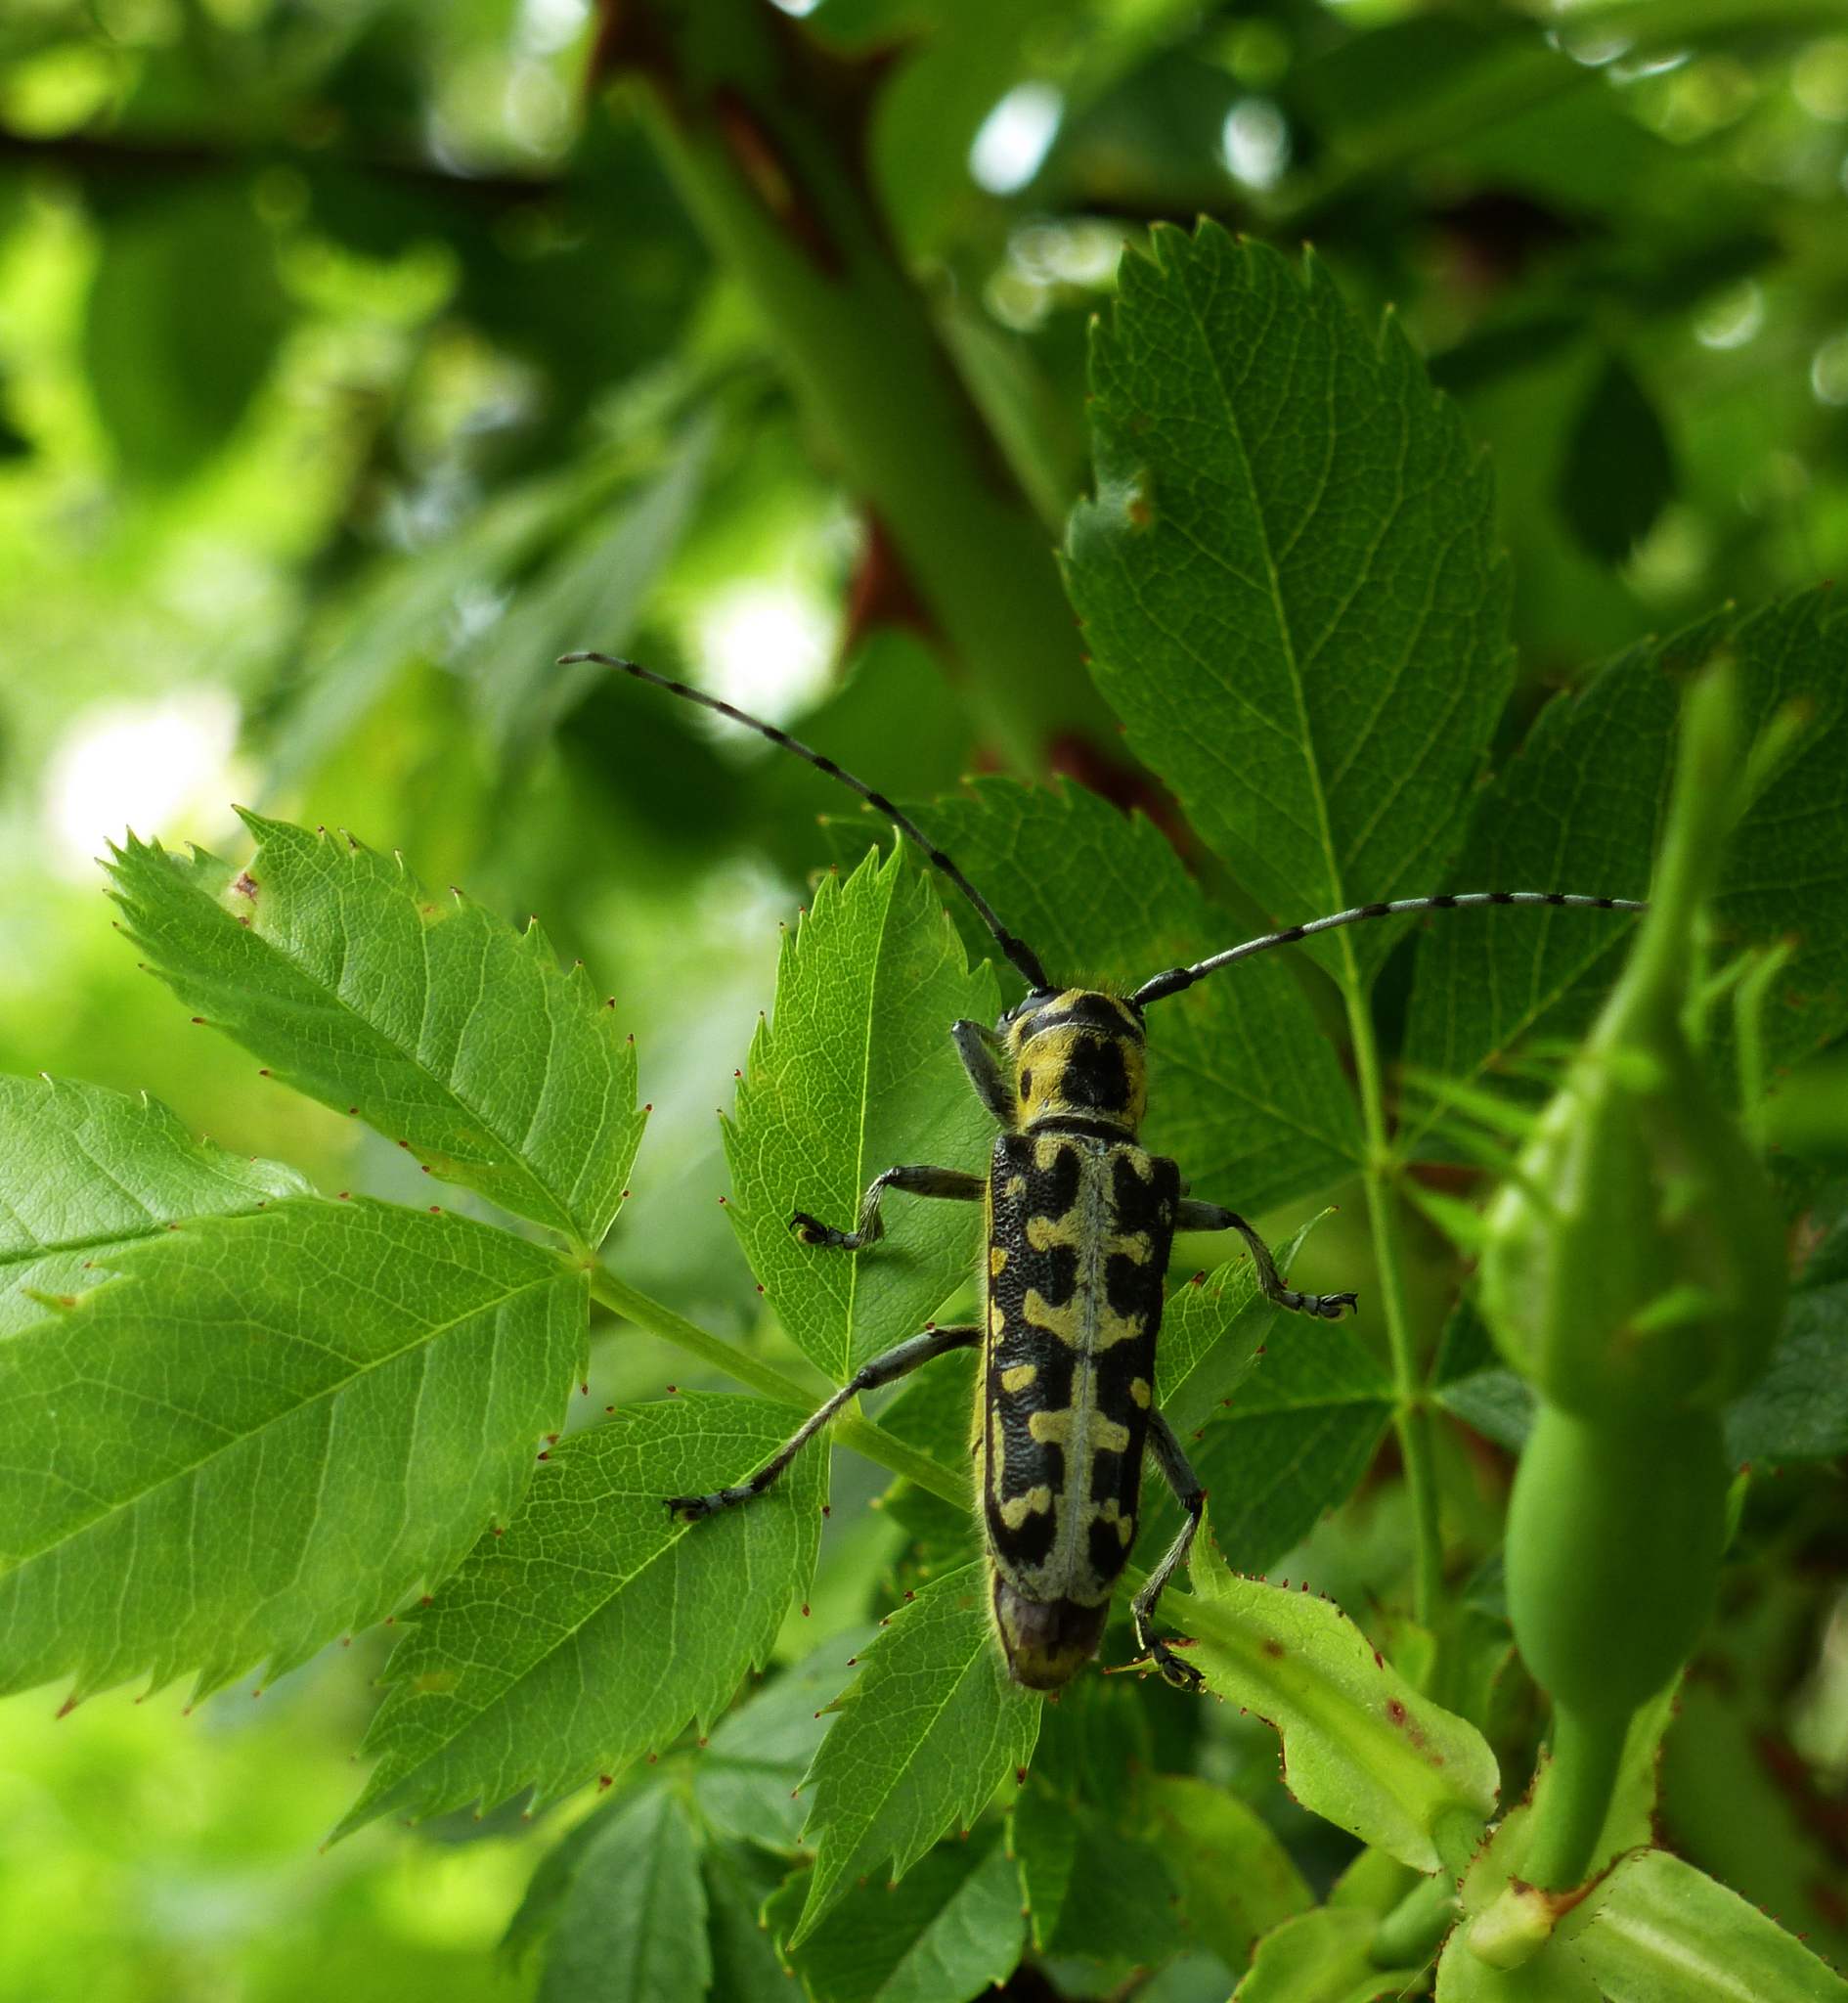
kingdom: Animalia
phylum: Arthropoda
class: Insecta
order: Coleoptera
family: Cerambycidae
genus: Saperda
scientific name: Saperda scalaris
